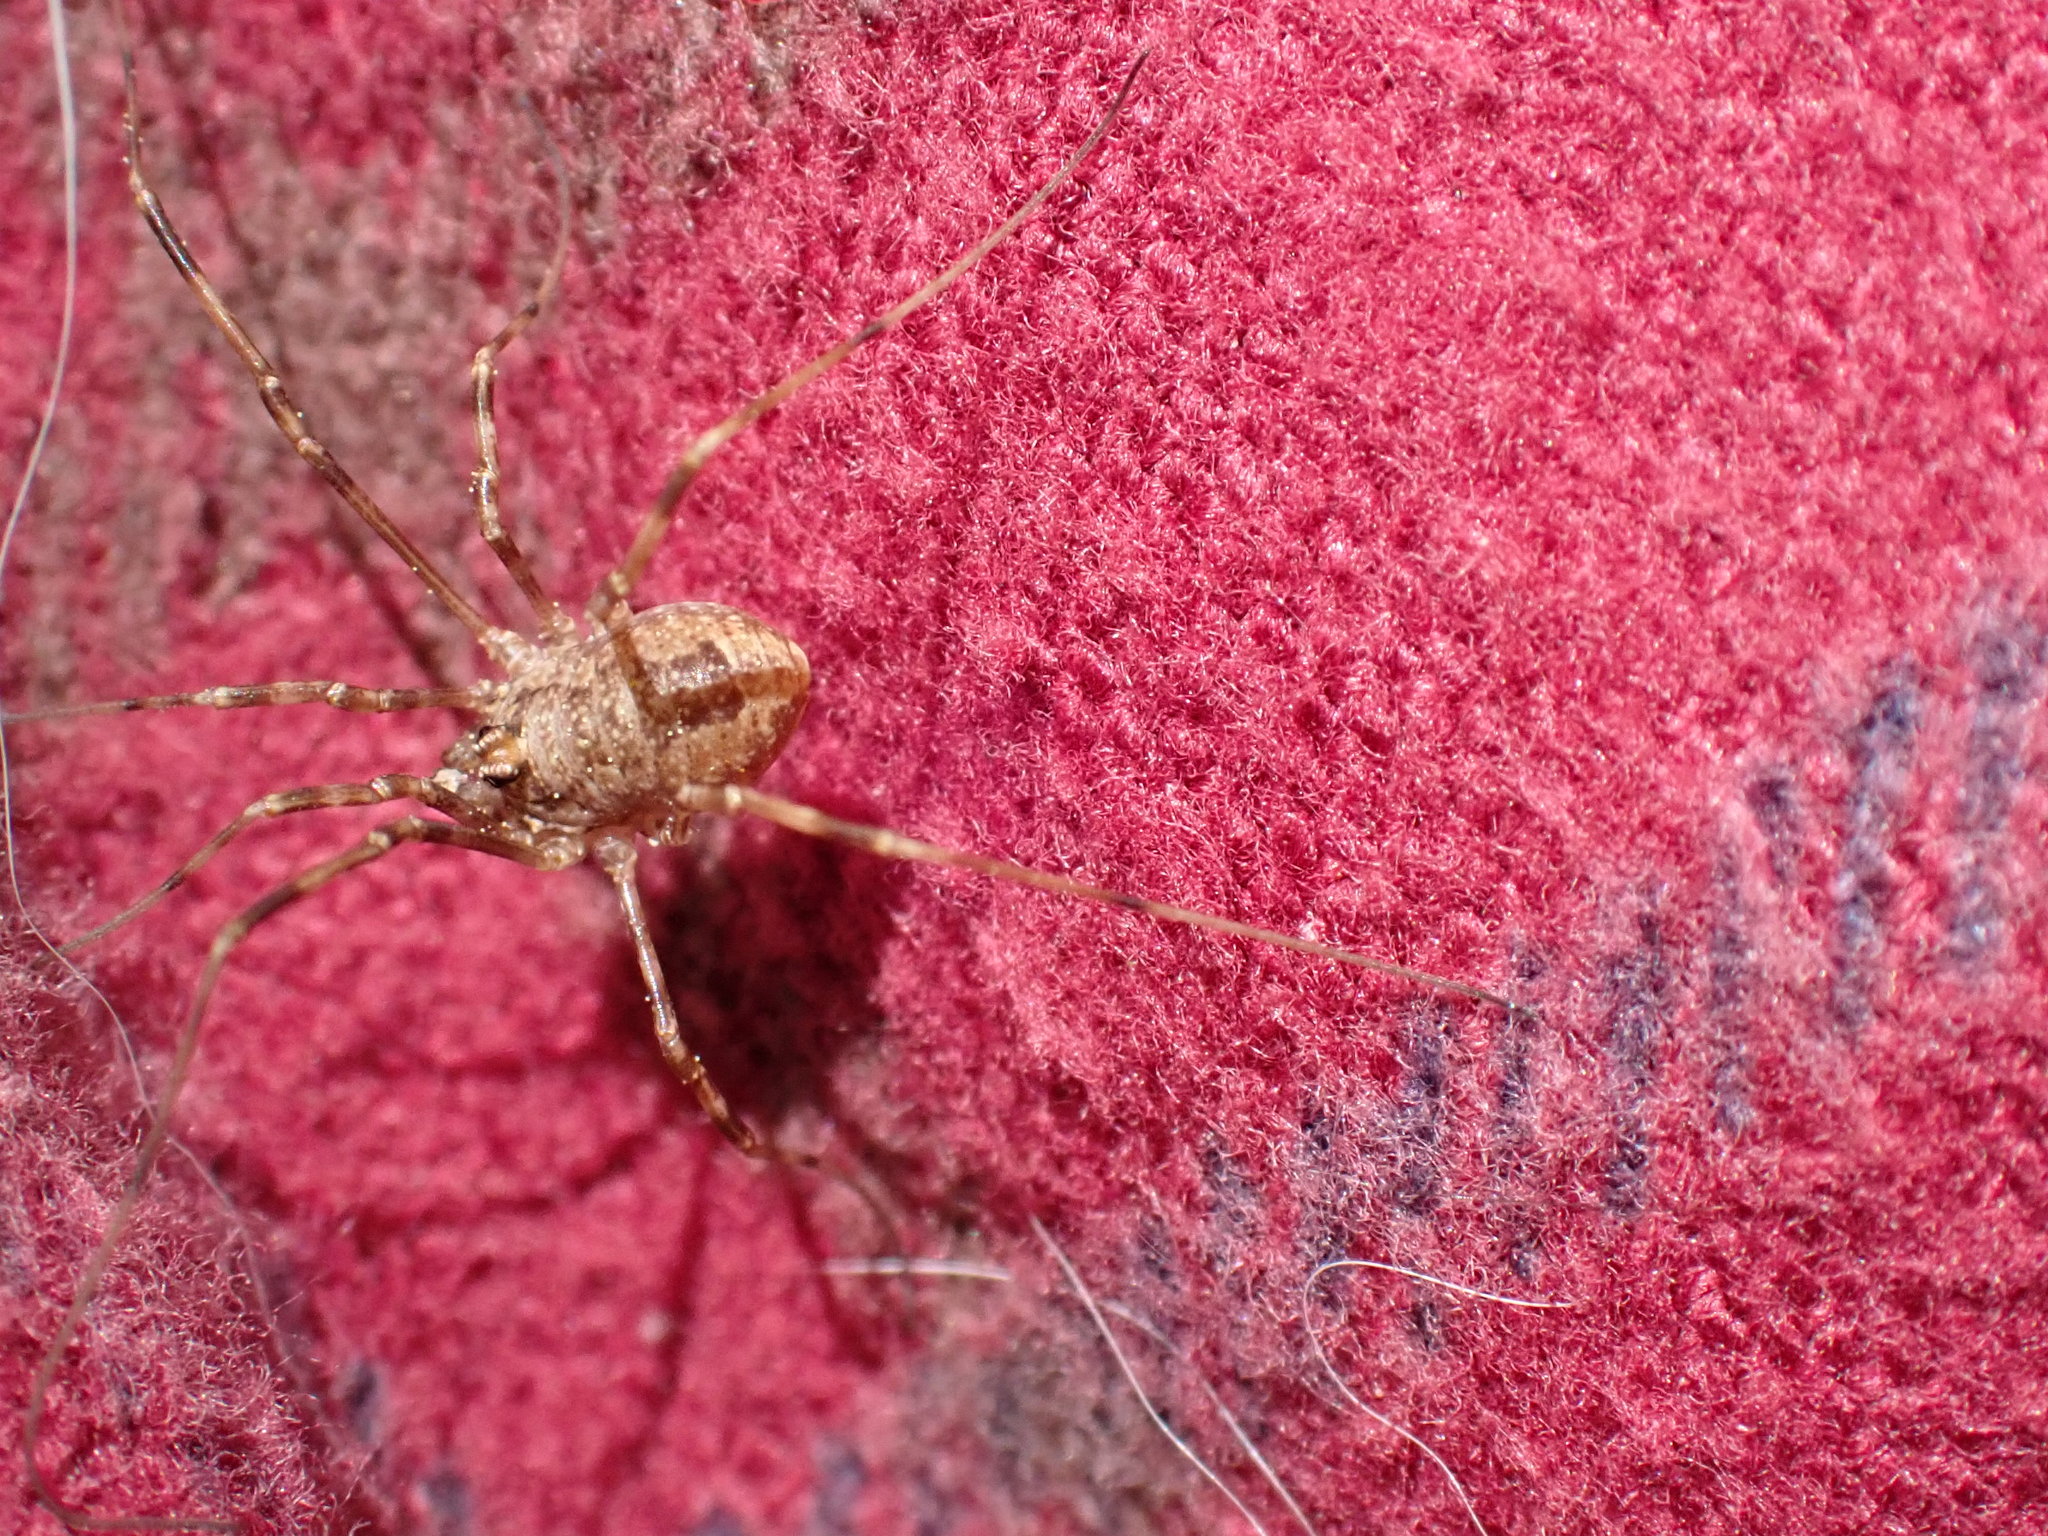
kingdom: Animalia
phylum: Arthropoda
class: Arachnida
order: Opiliones
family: Phalangiidae
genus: Rilaena
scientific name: Rilaena triangularis
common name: Spring harvestman
